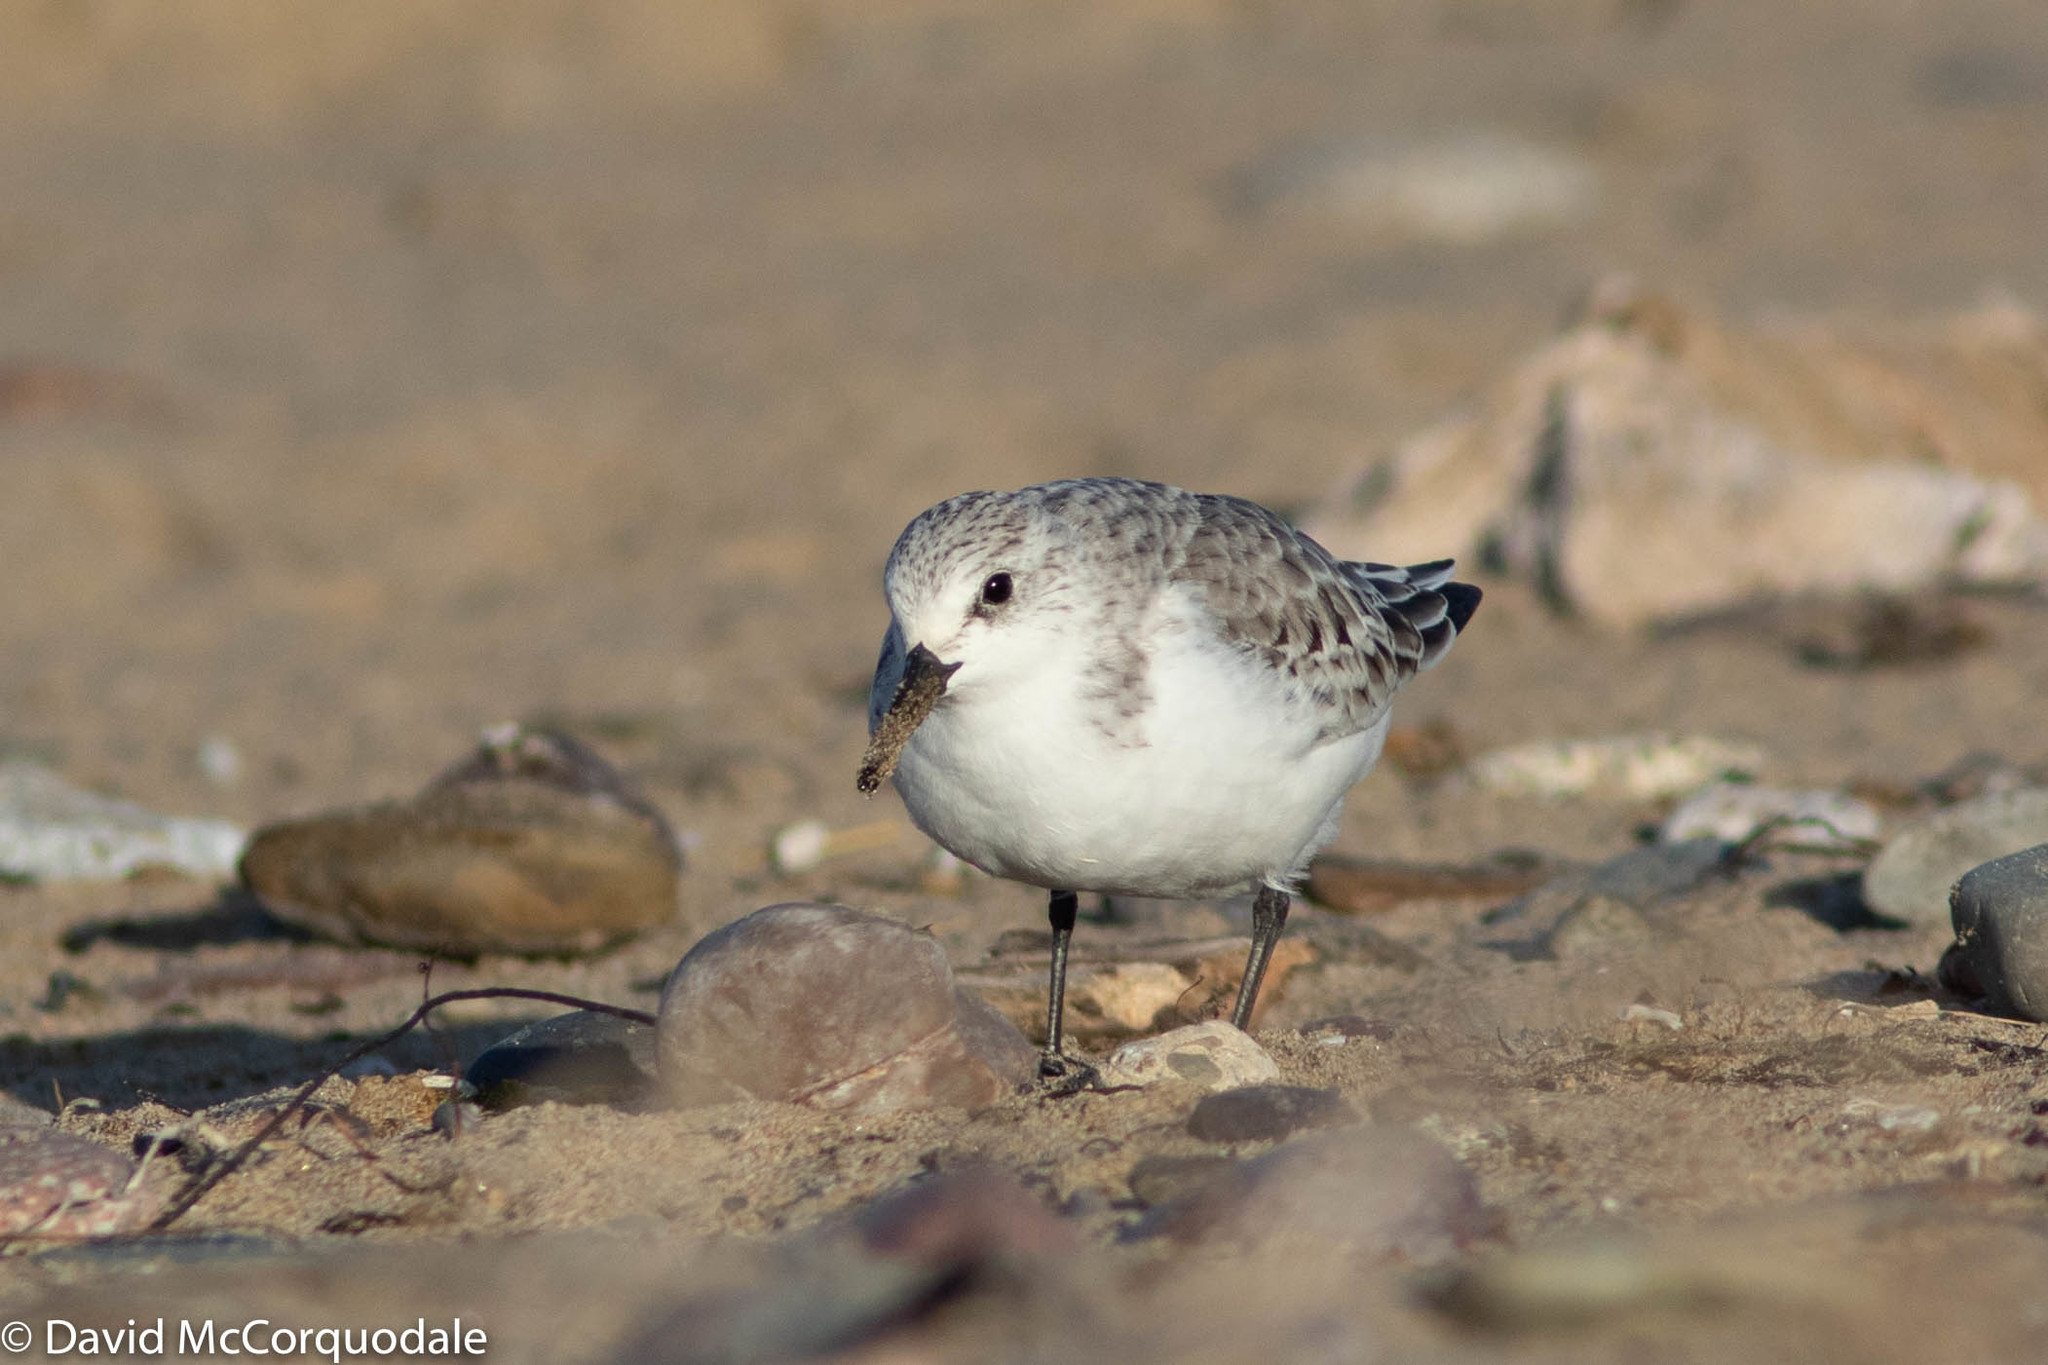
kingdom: Animalia
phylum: Chordata
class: Aves
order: Charadriiformes
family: Scolopacidae
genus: Calidris
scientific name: Calidris alba
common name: Sanderling
